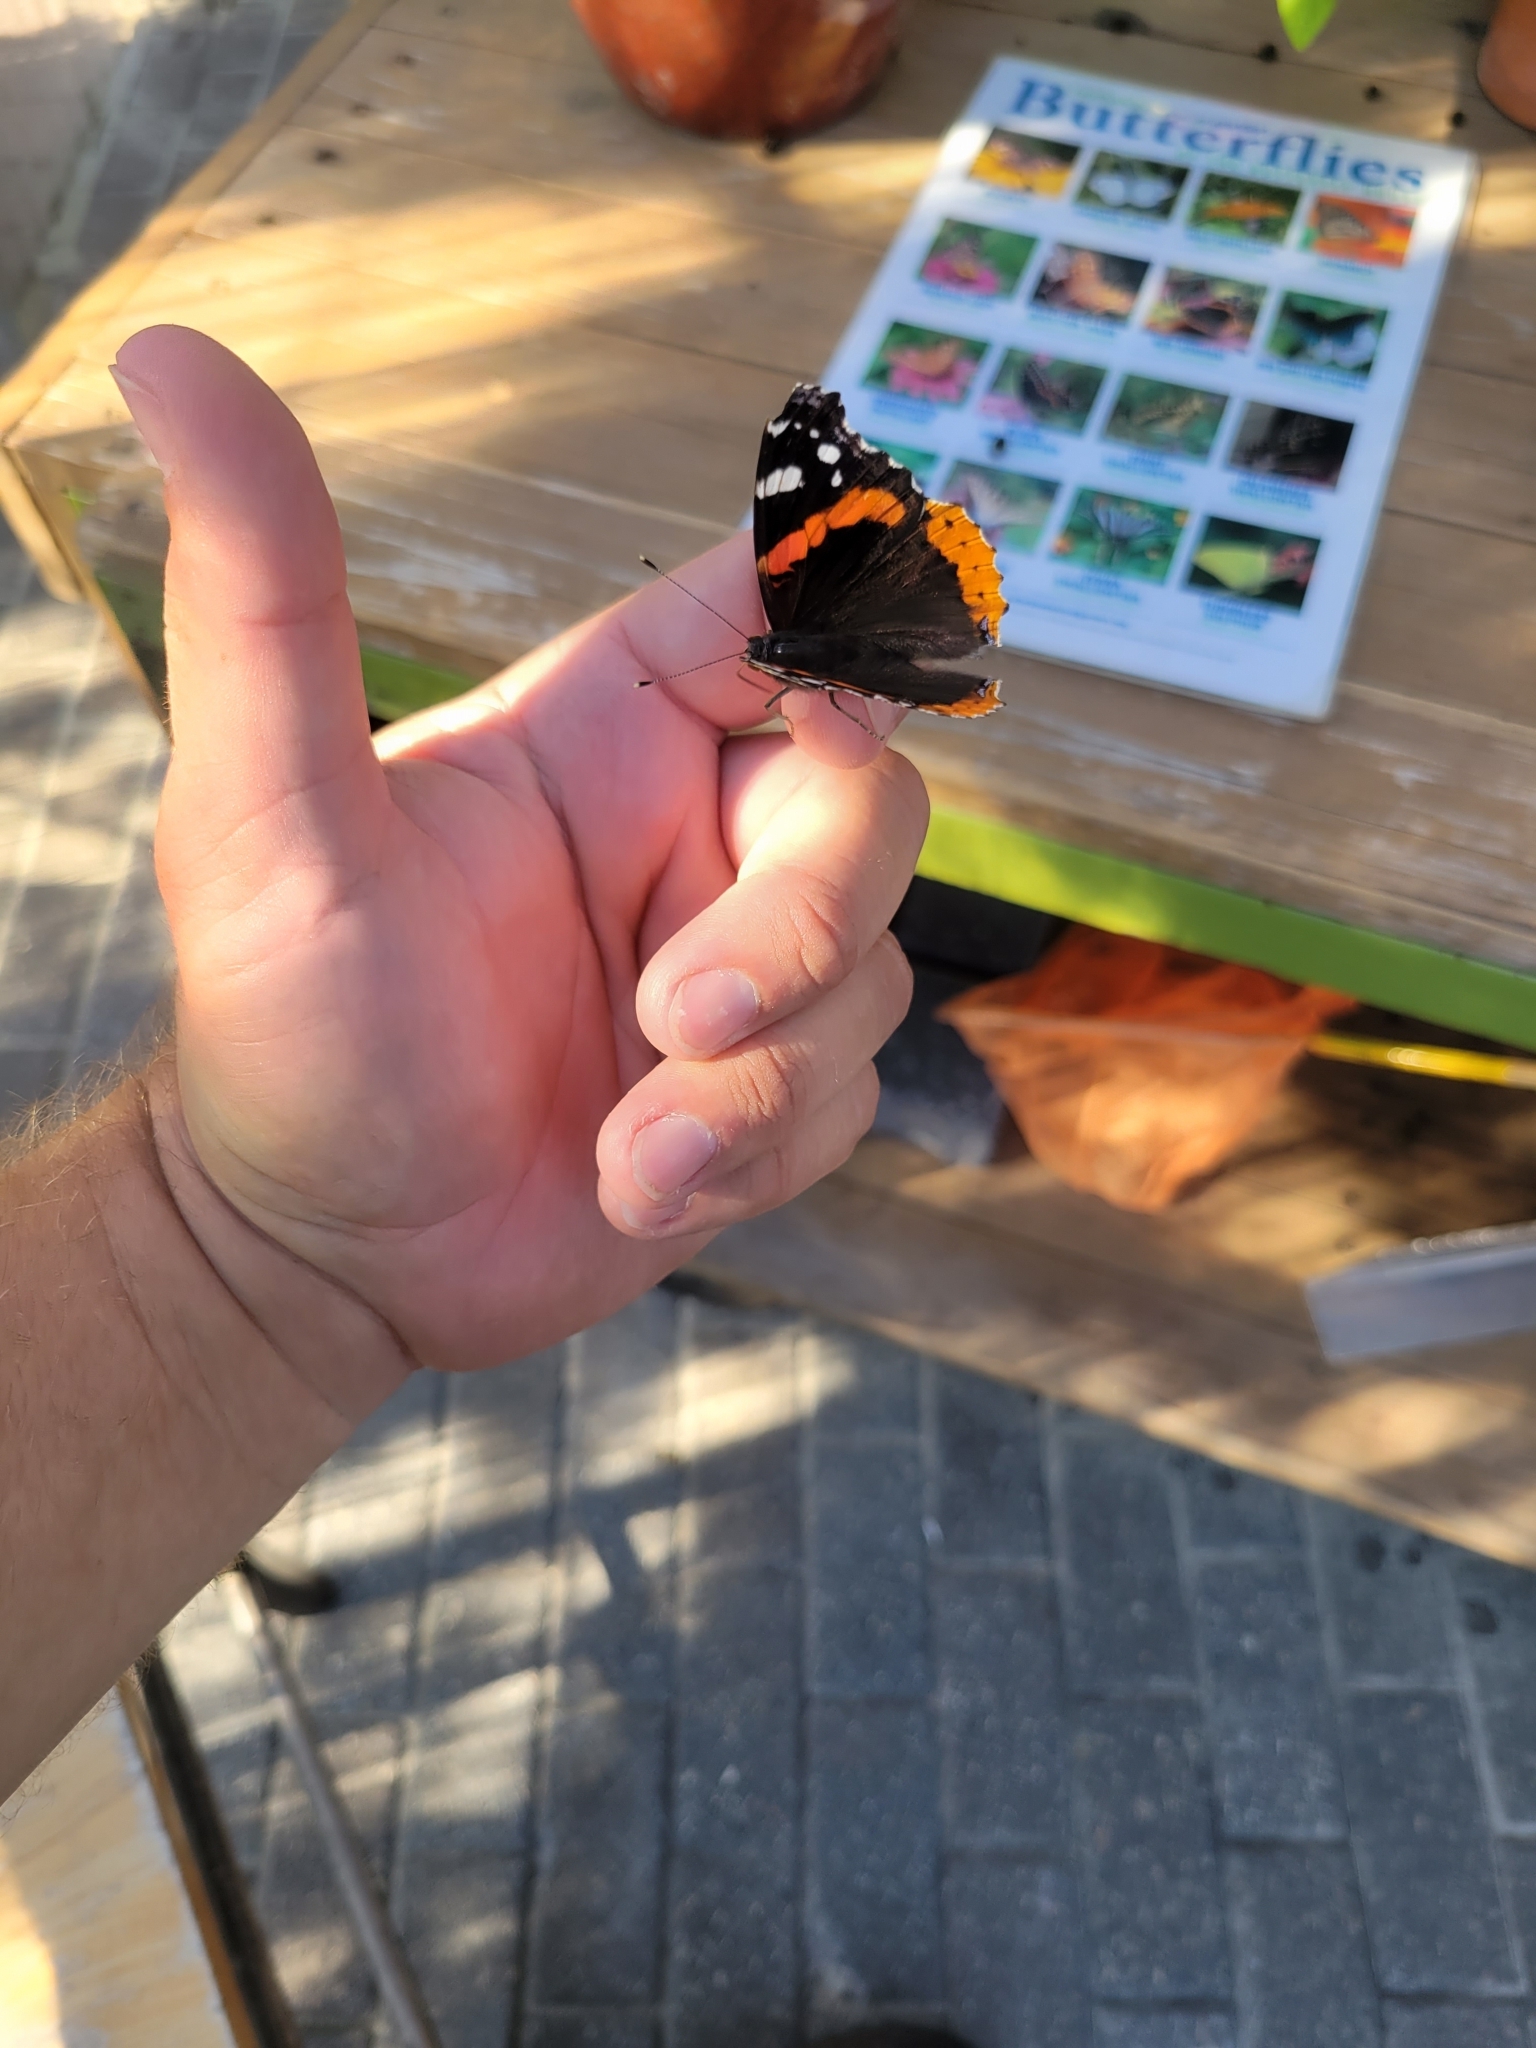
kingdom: Animalia
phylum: Arthropoda
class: Insecta
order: Lepidoptera
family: Nymphalidae
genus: Vanessa
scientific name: Vanessa atalanta
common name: Red admiral
